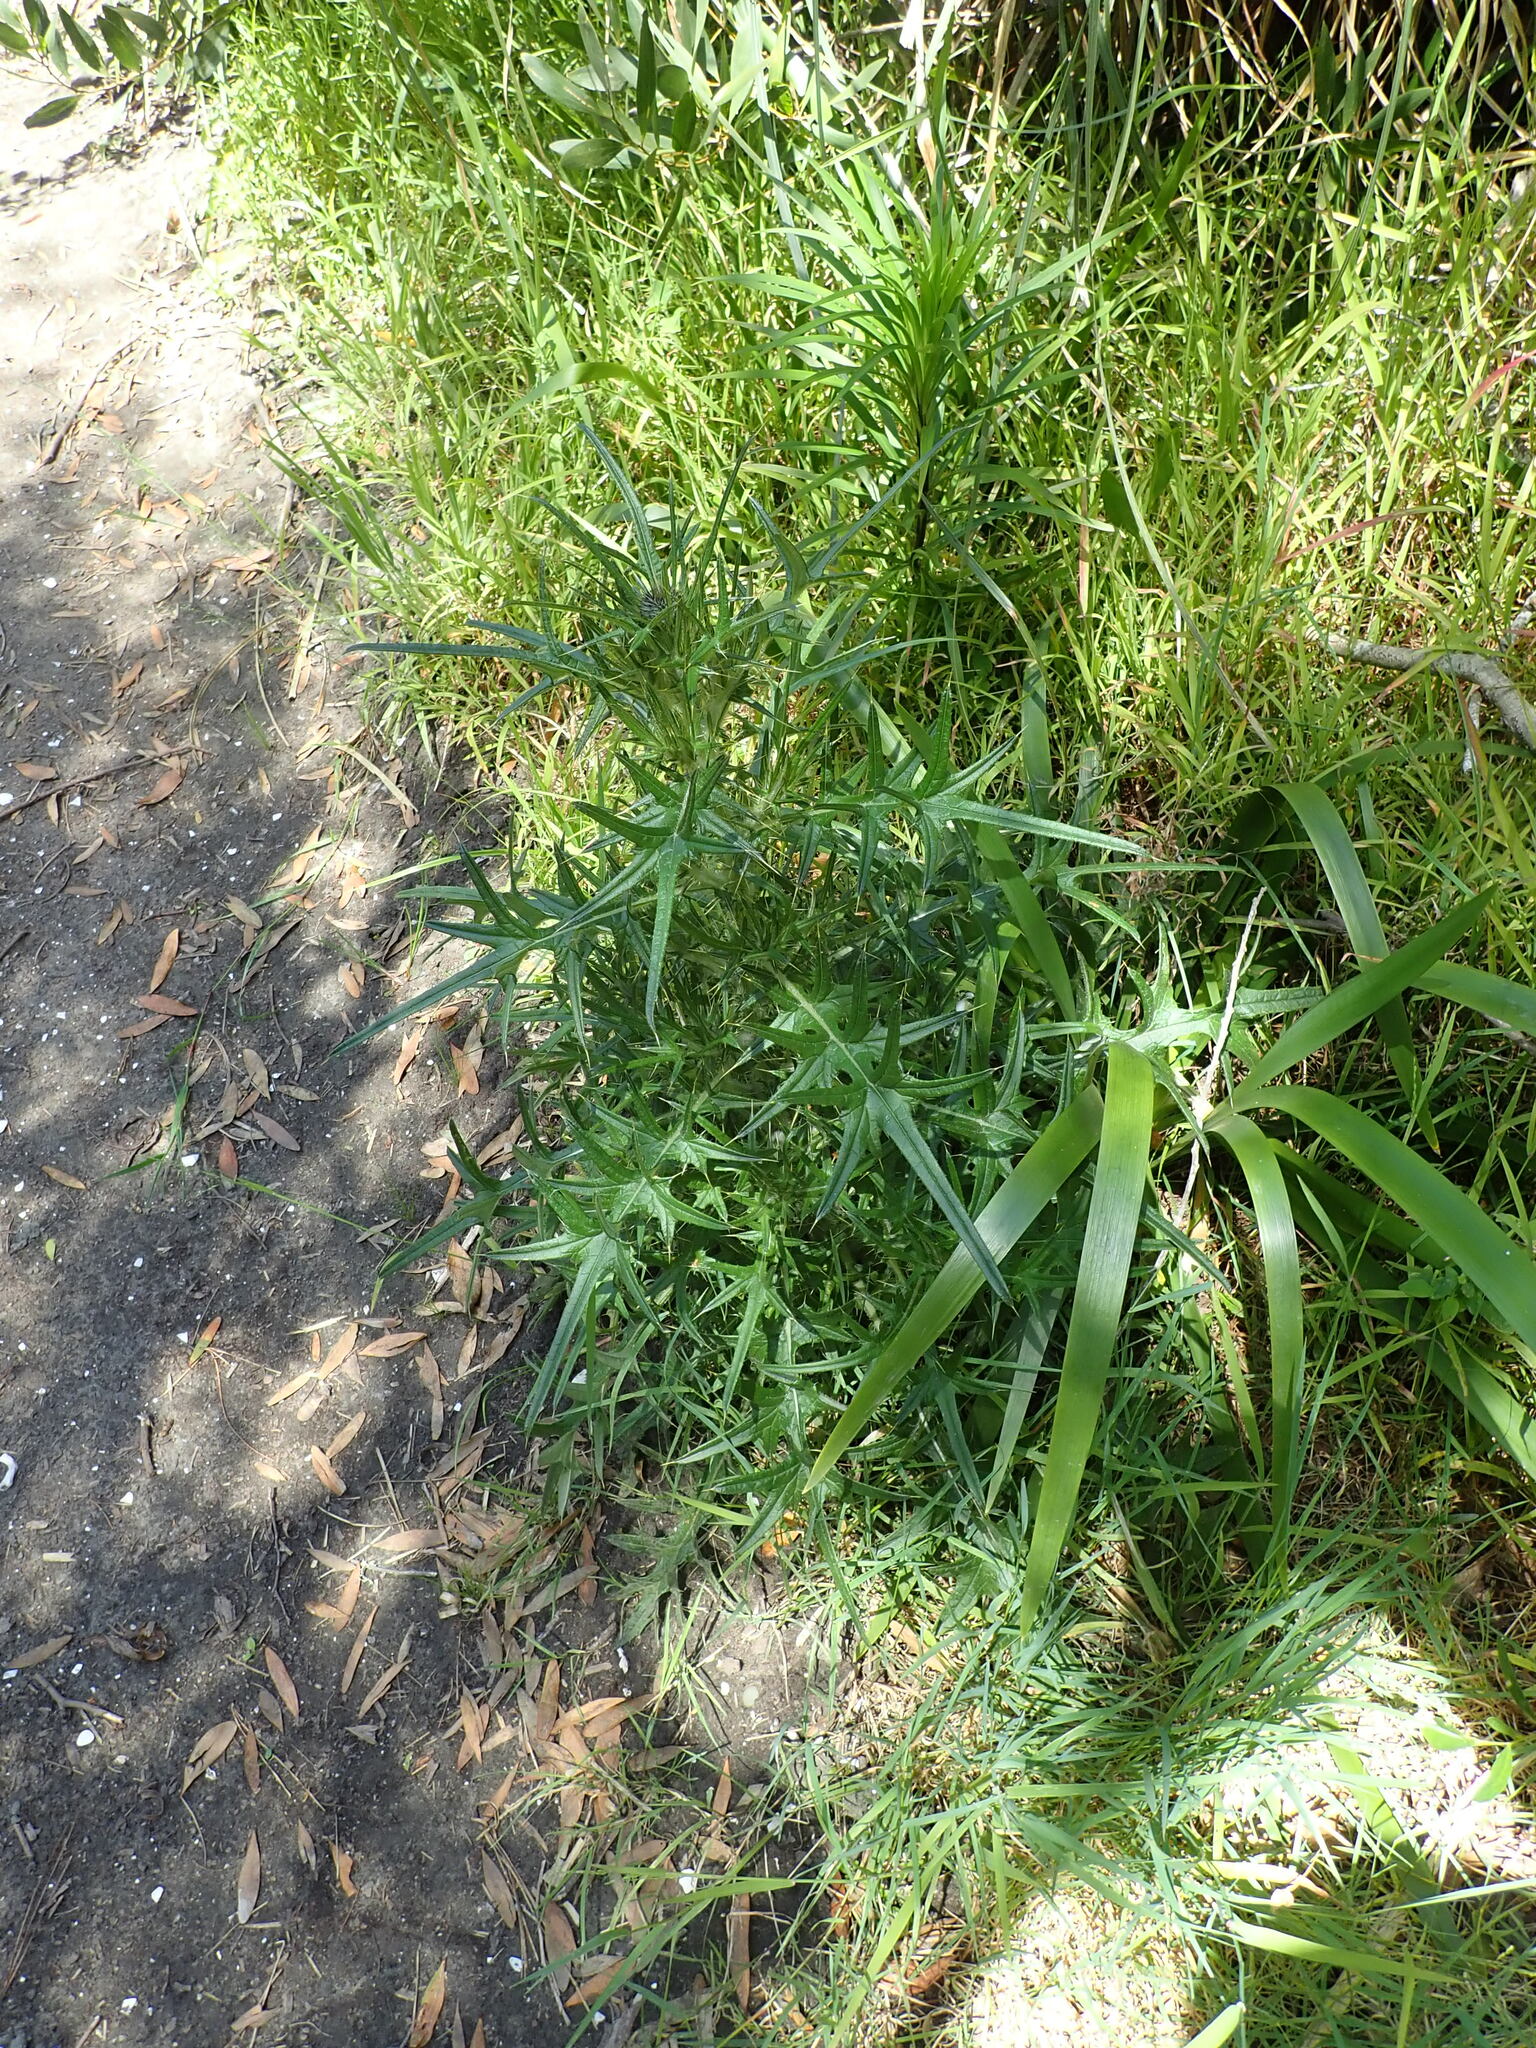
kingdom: Plantae
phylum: Tracheophyta
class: Magnoliopsida
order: Asterales
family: Asteraceae
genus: Cirsium
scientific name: Cirsium vulgare
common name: Bull thistle
